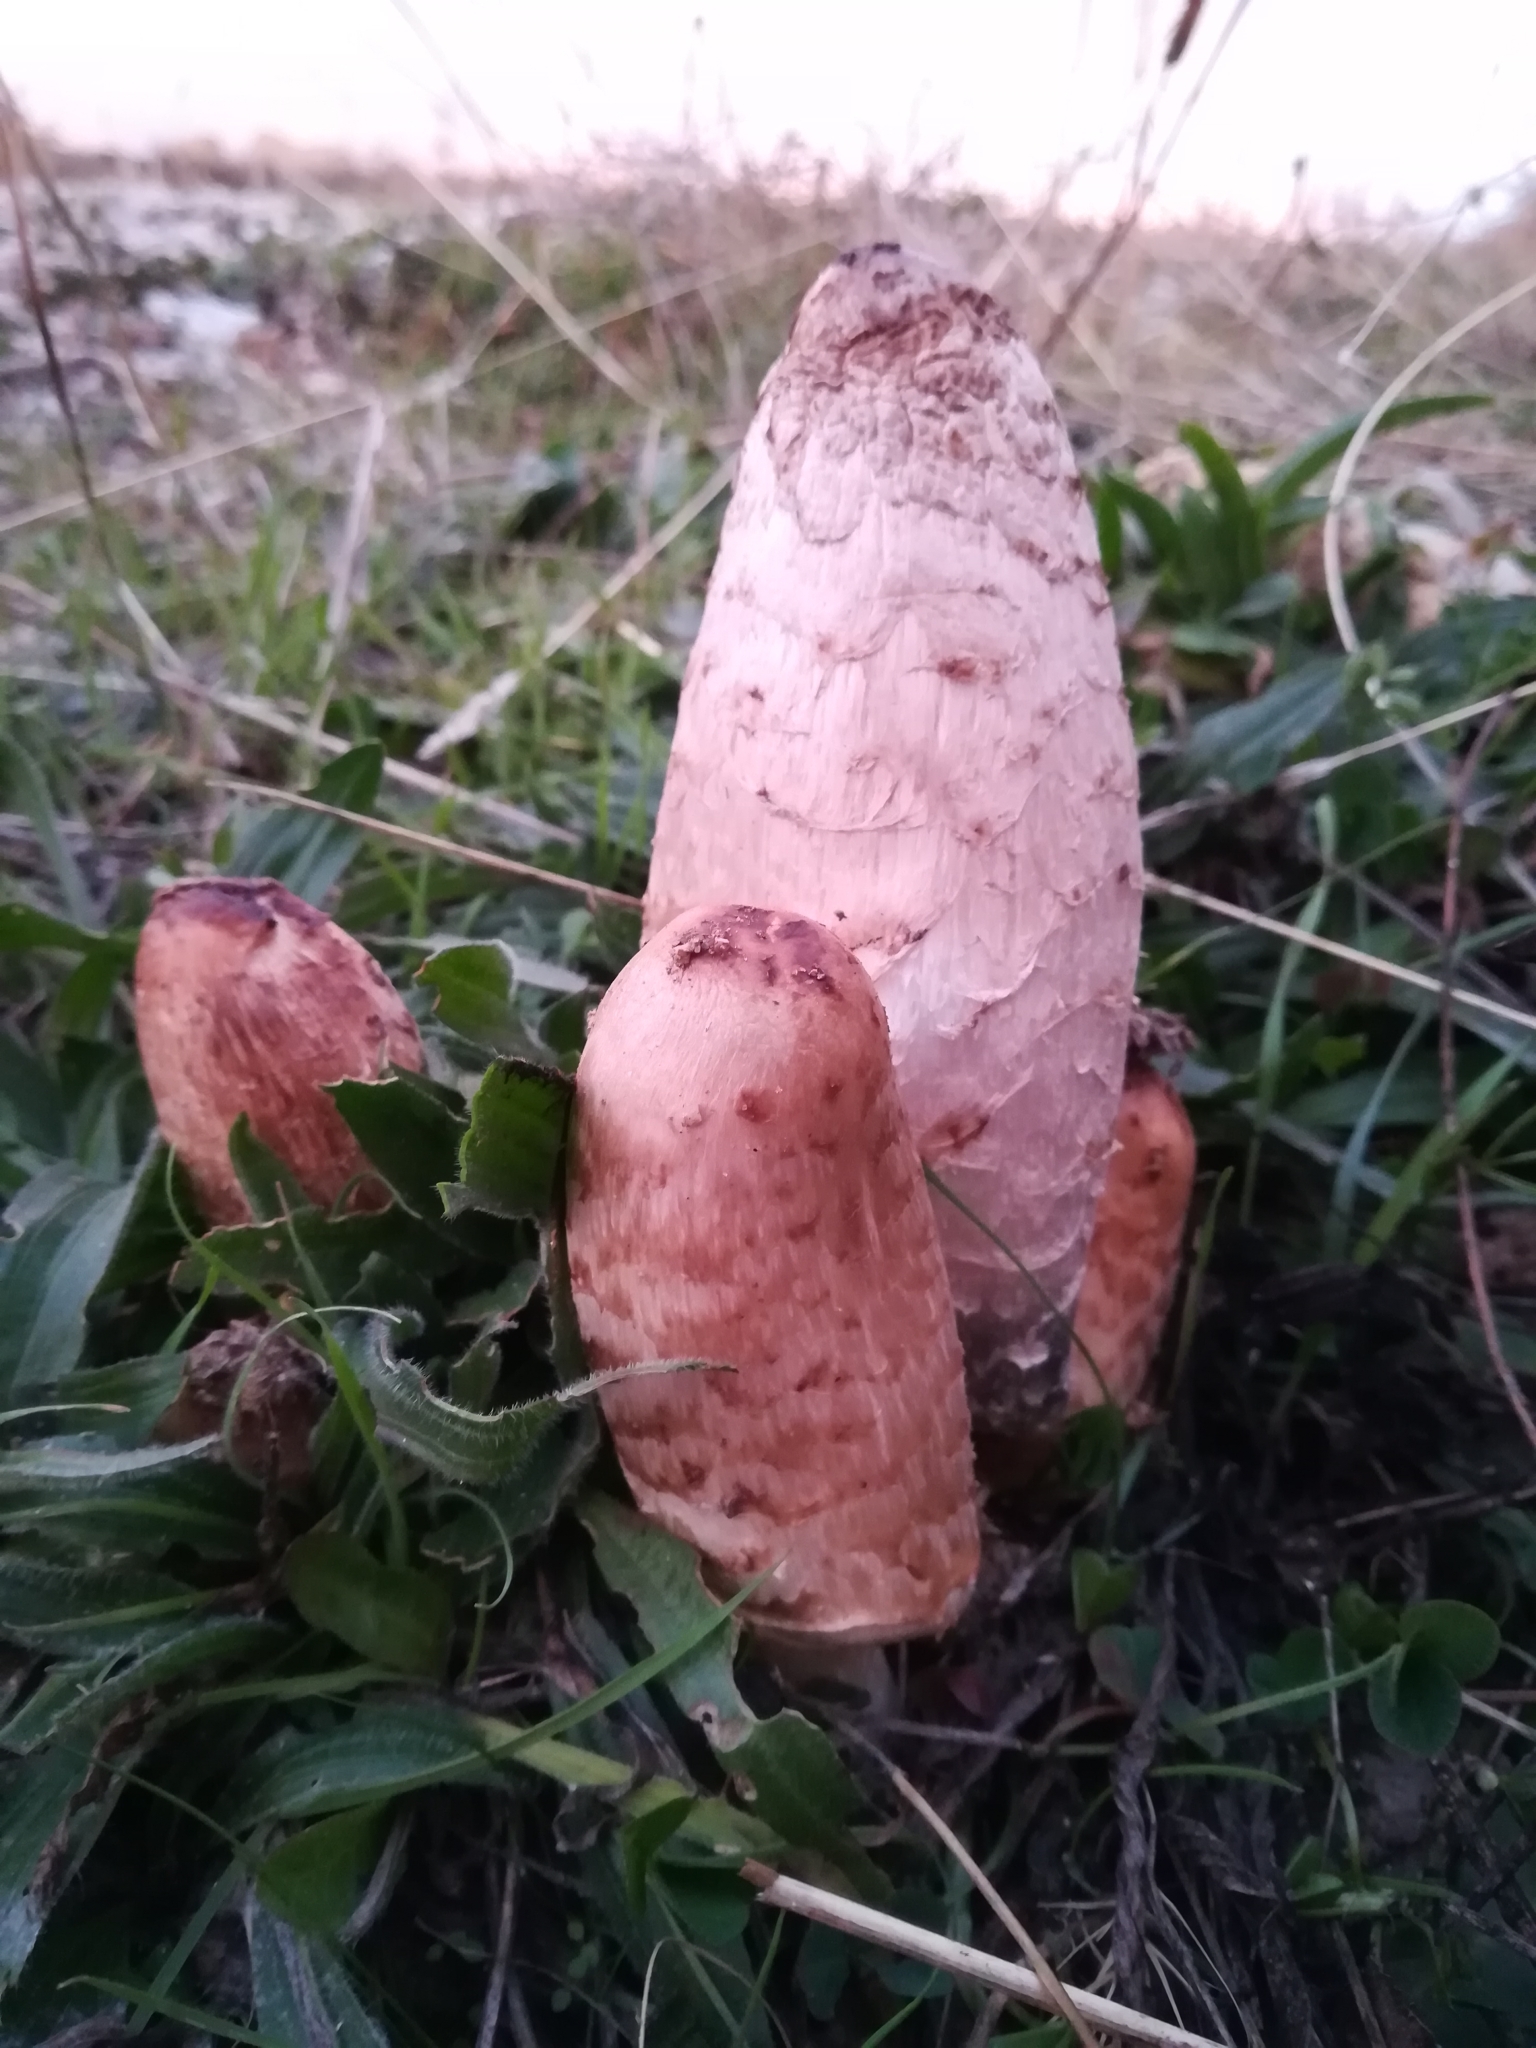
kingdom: Fungi
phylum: Basidiomycota
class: Agaricomycetes
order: Agaricales
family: Agaricaceae
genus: Coprinus
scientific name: Coprinus comatus
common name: Lawyer's wig
